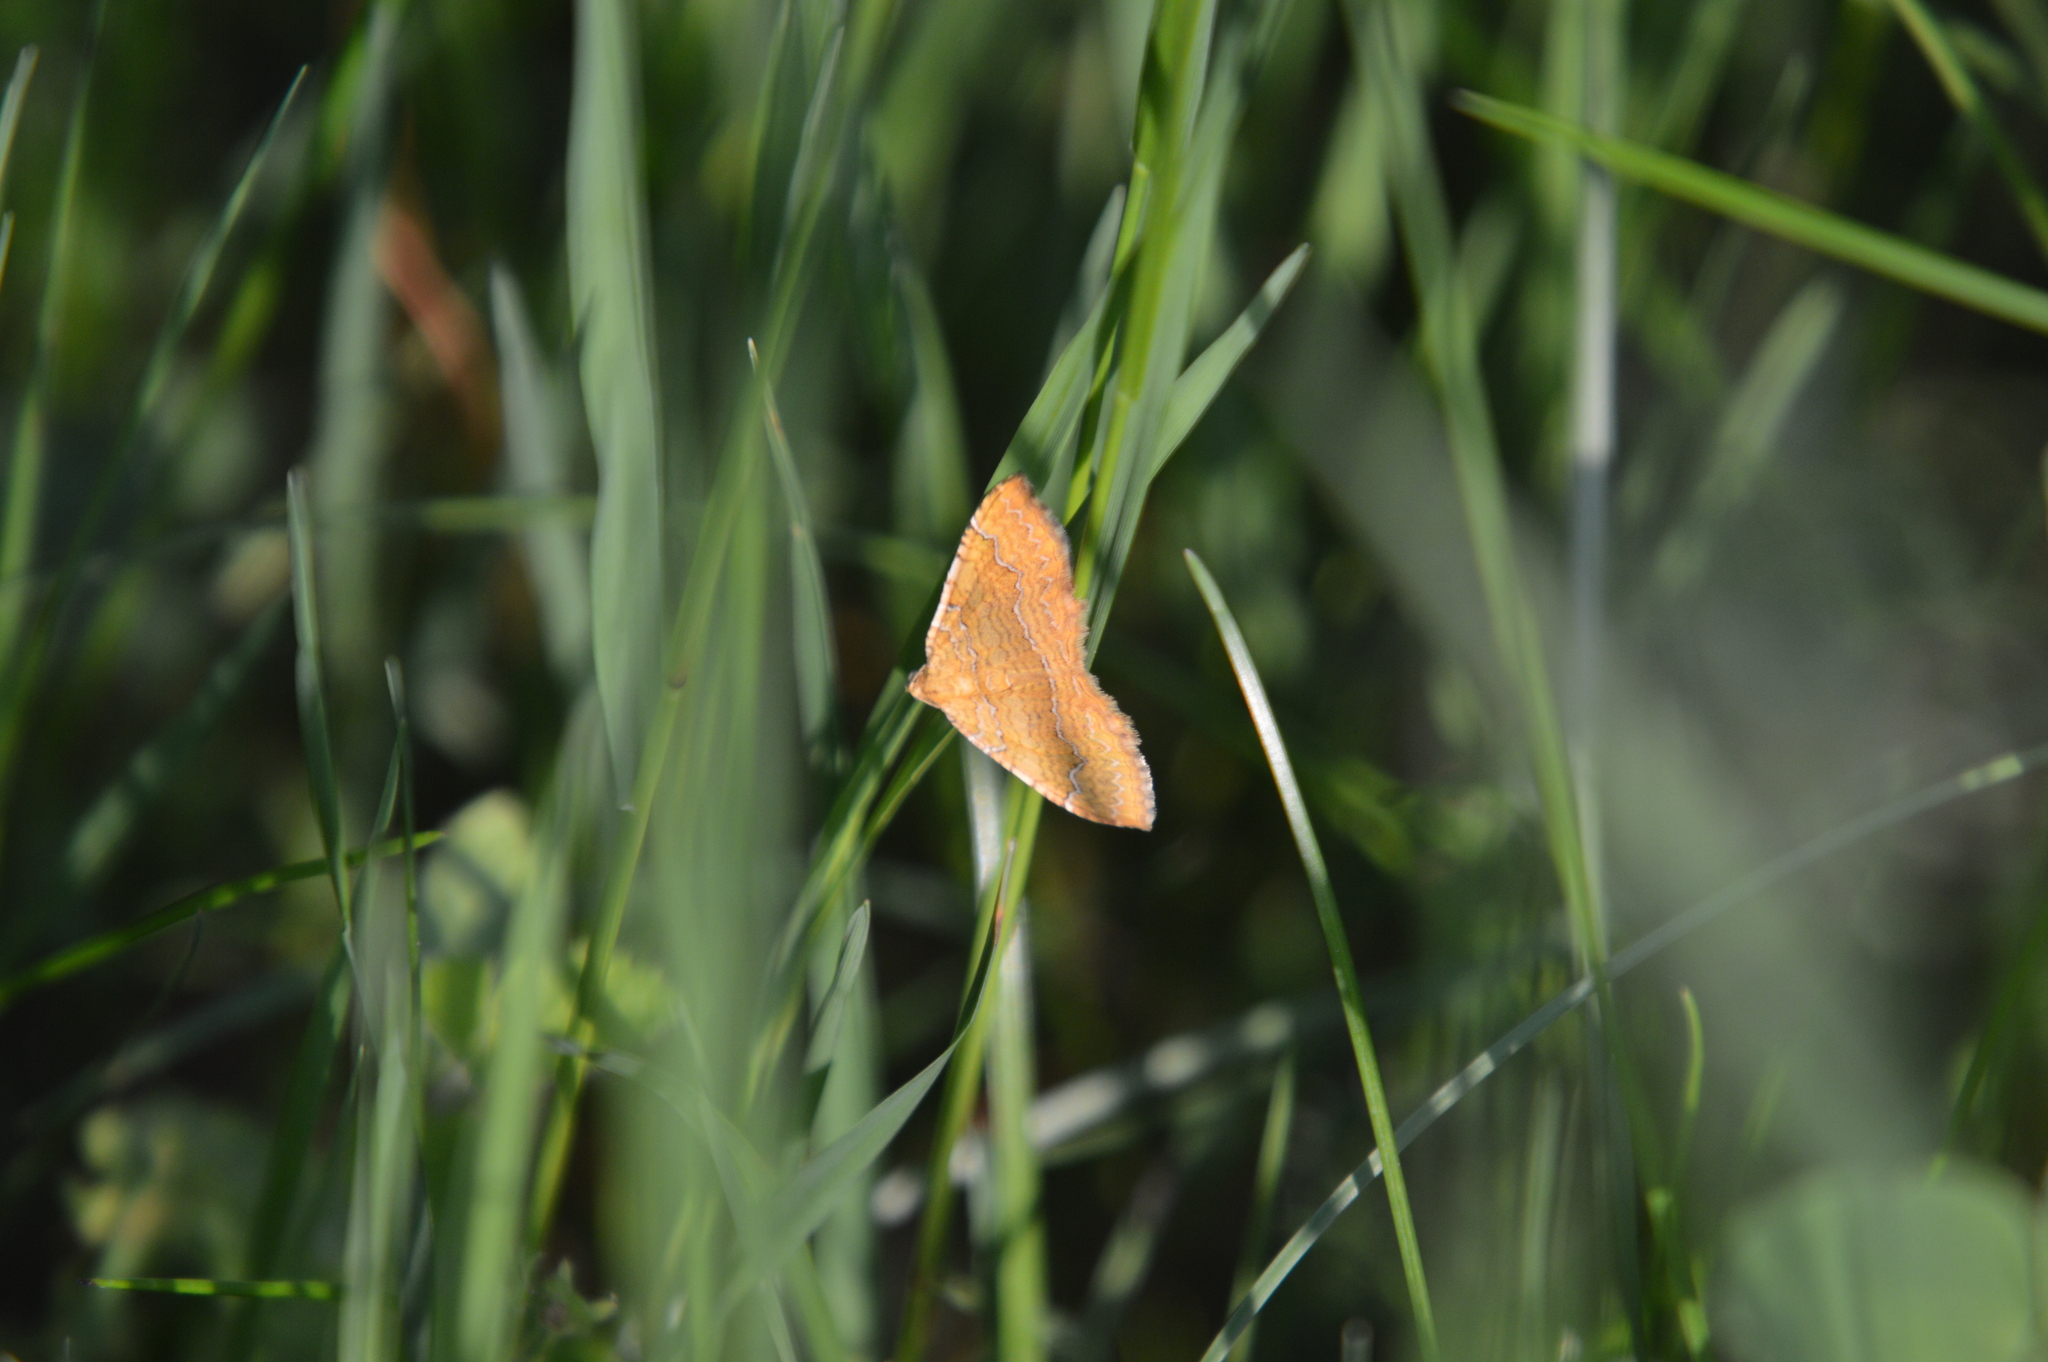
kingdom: Animalia
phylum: Arthropoda
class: Insecta
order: Lepidoptera
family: Geometridae
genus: Camptogramma
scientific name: Camptogramma bilineata
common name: Yellow shell
